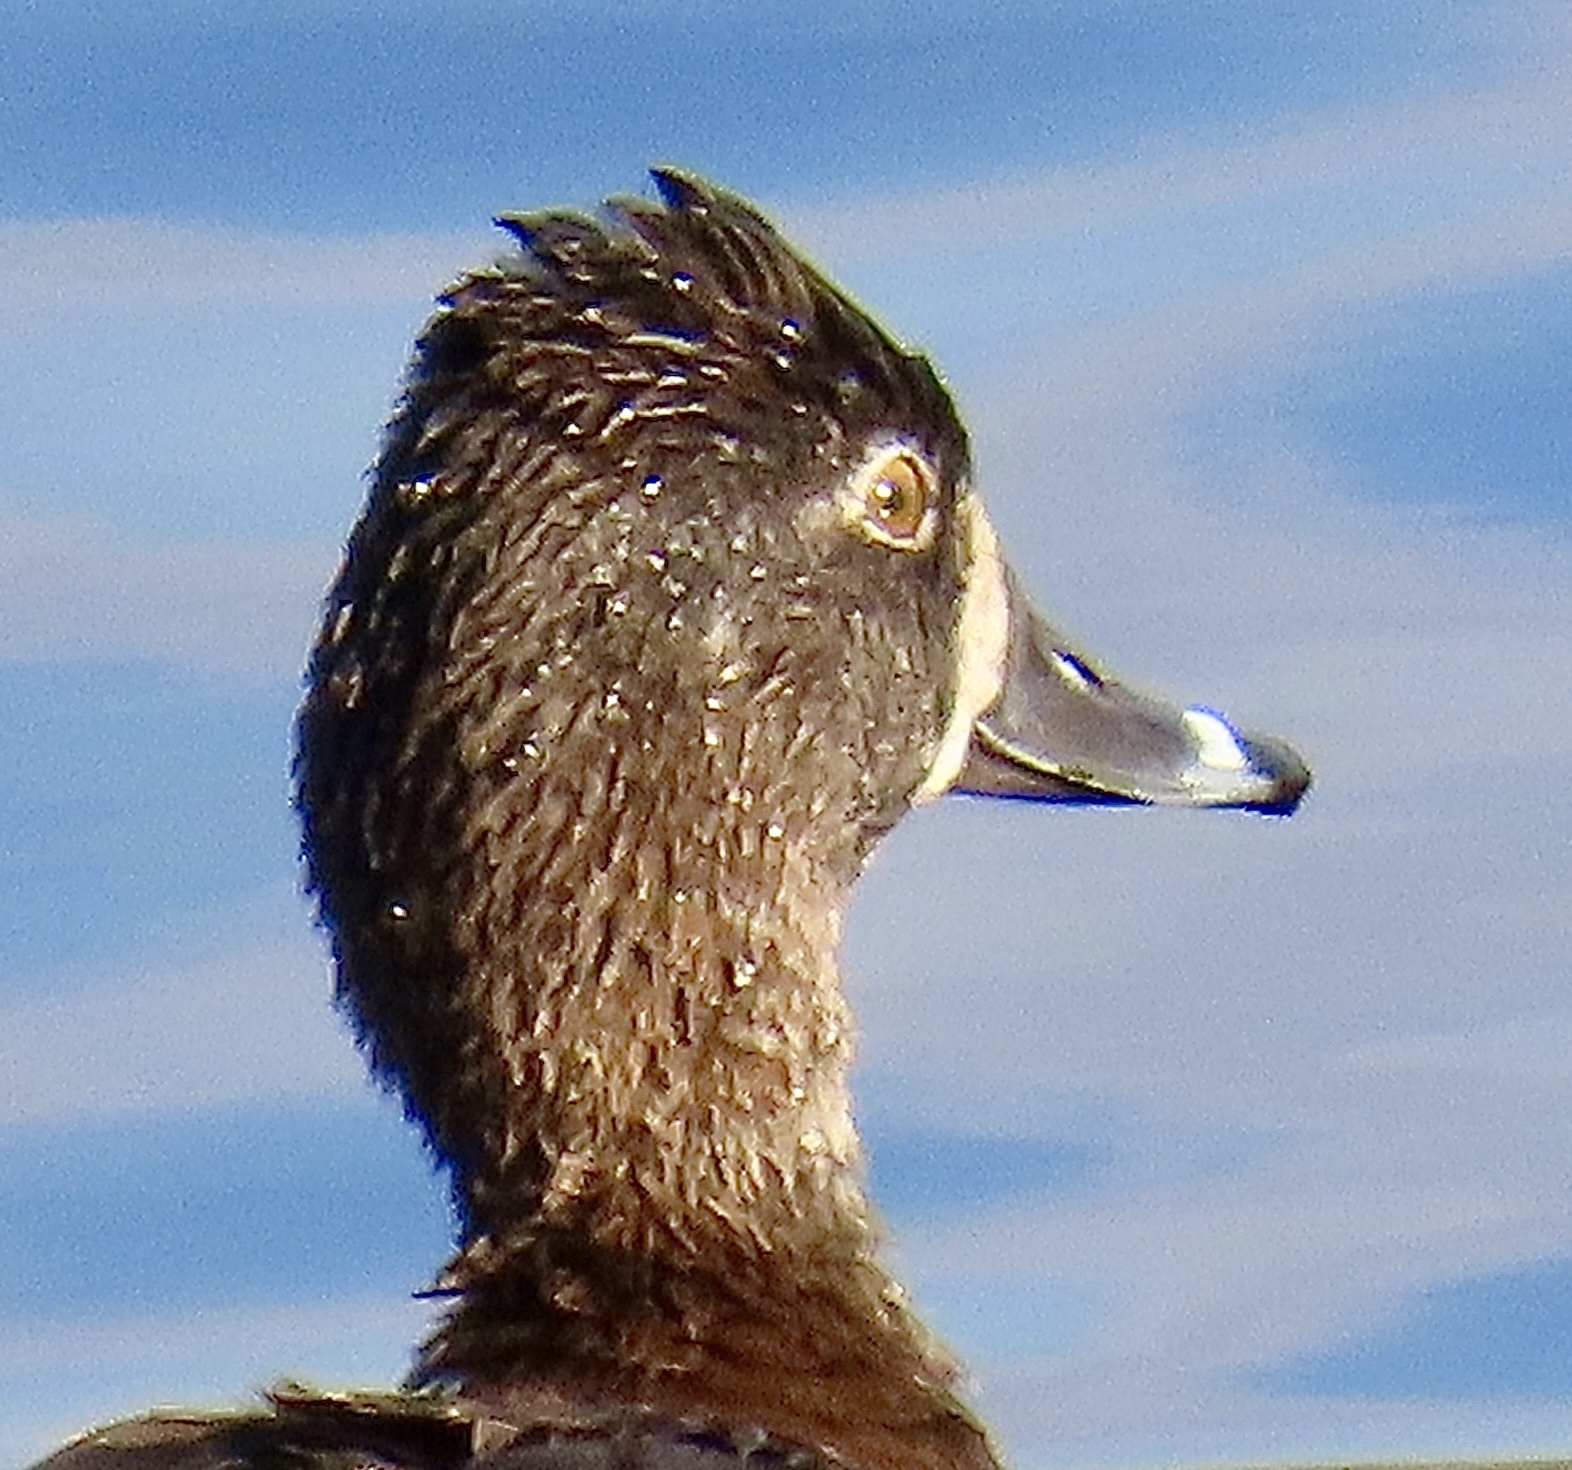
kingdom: Animalia
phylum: Chordata
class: Aves
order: Anseriformes
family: Anatidae
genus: Aythya
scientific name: Aythya collaris
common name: Ring-necked duck
